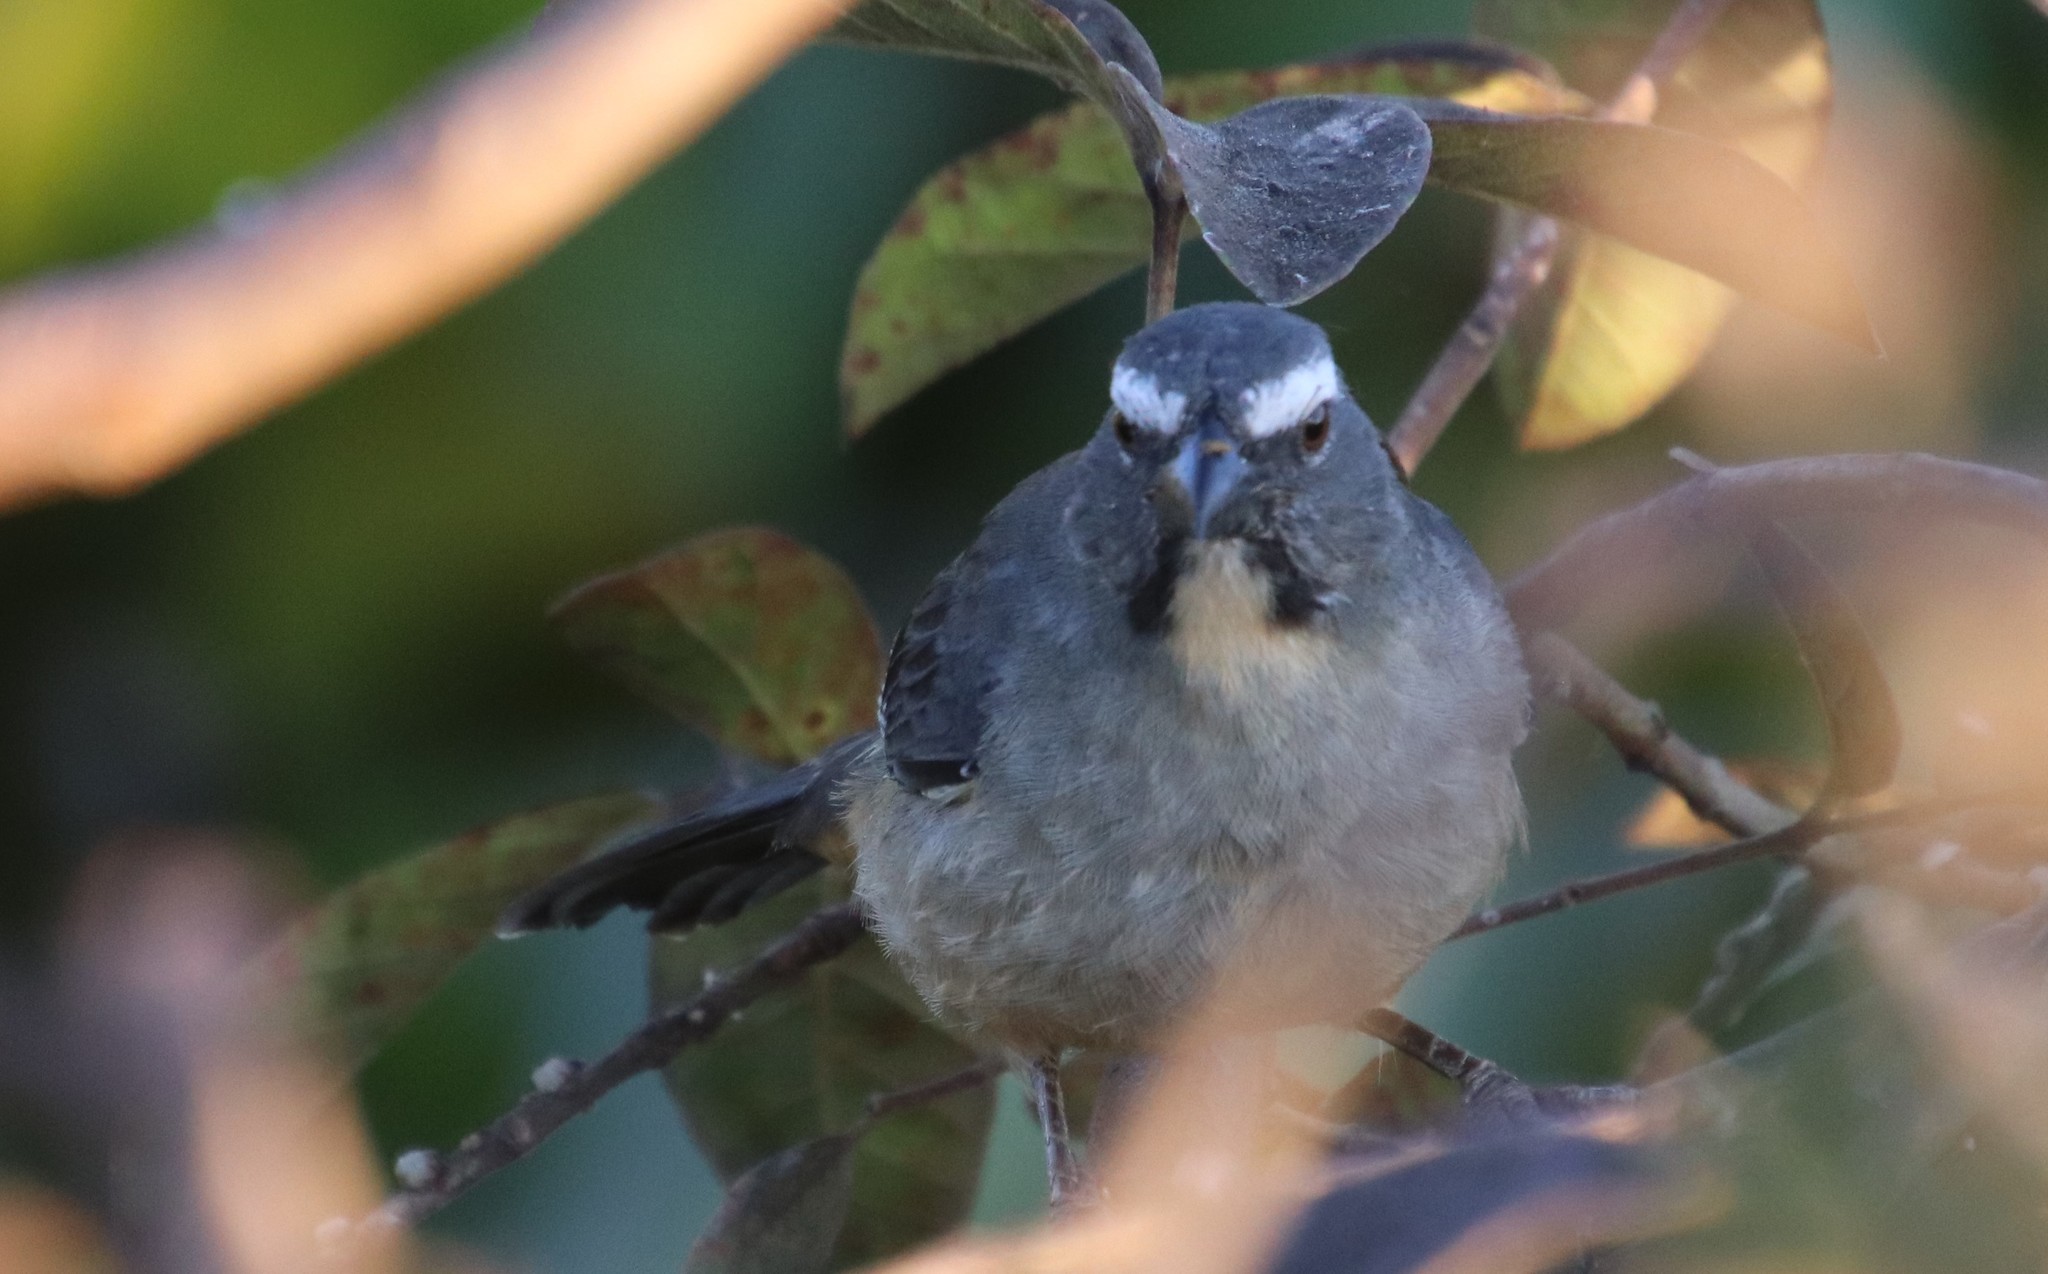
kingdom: Animalia
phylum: Chordata
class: Aves
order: Passeriformes
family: Thraupidae
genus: Saltator
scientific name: Saltator coerulescens
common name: Grayish saltator
